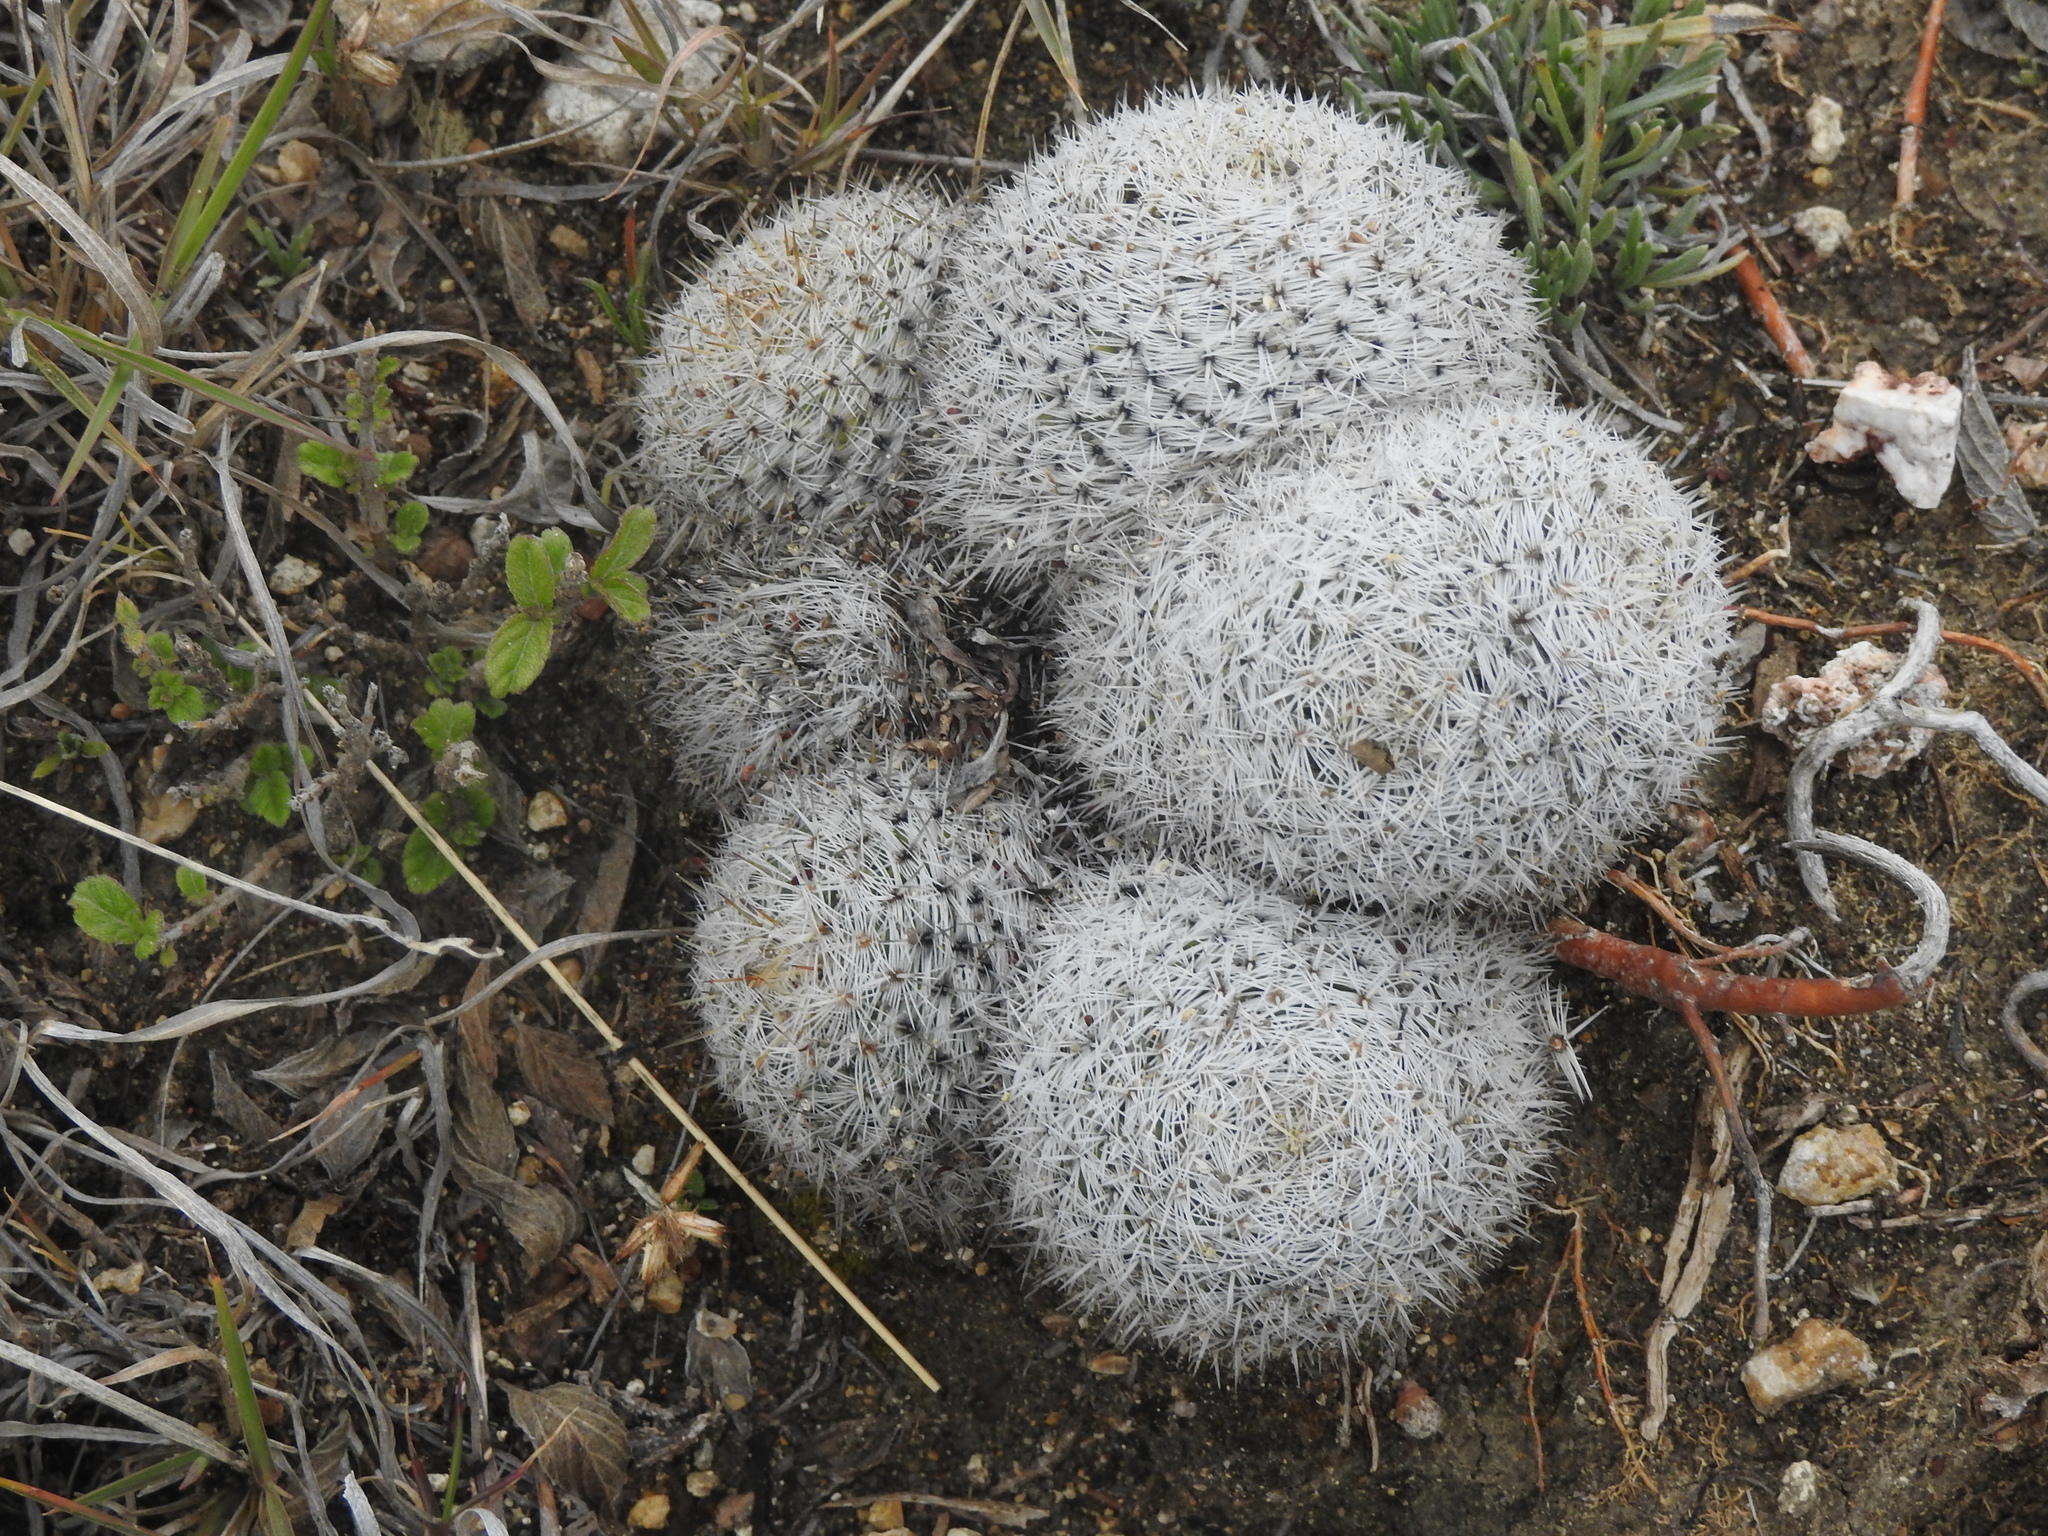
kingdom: Plantae
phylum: Tracheophyta
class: Magnoliopsida
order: Caryophyllales
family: Cactaceae
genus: Mammillaria
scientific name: Mammillaria albilanata
